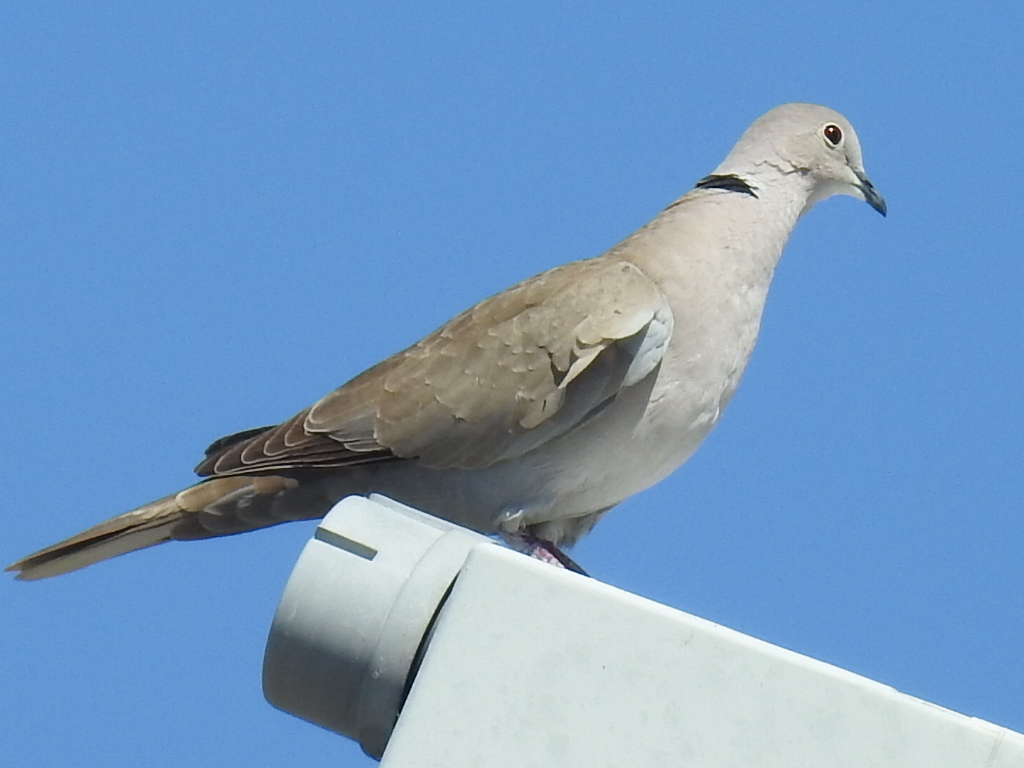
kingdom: Animalia
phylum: Chordata
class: Aves
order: Columbiformes
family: Columbidae
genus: Streptopelia
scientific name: Streptopelia decaocto
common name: Eurasian collared dove
